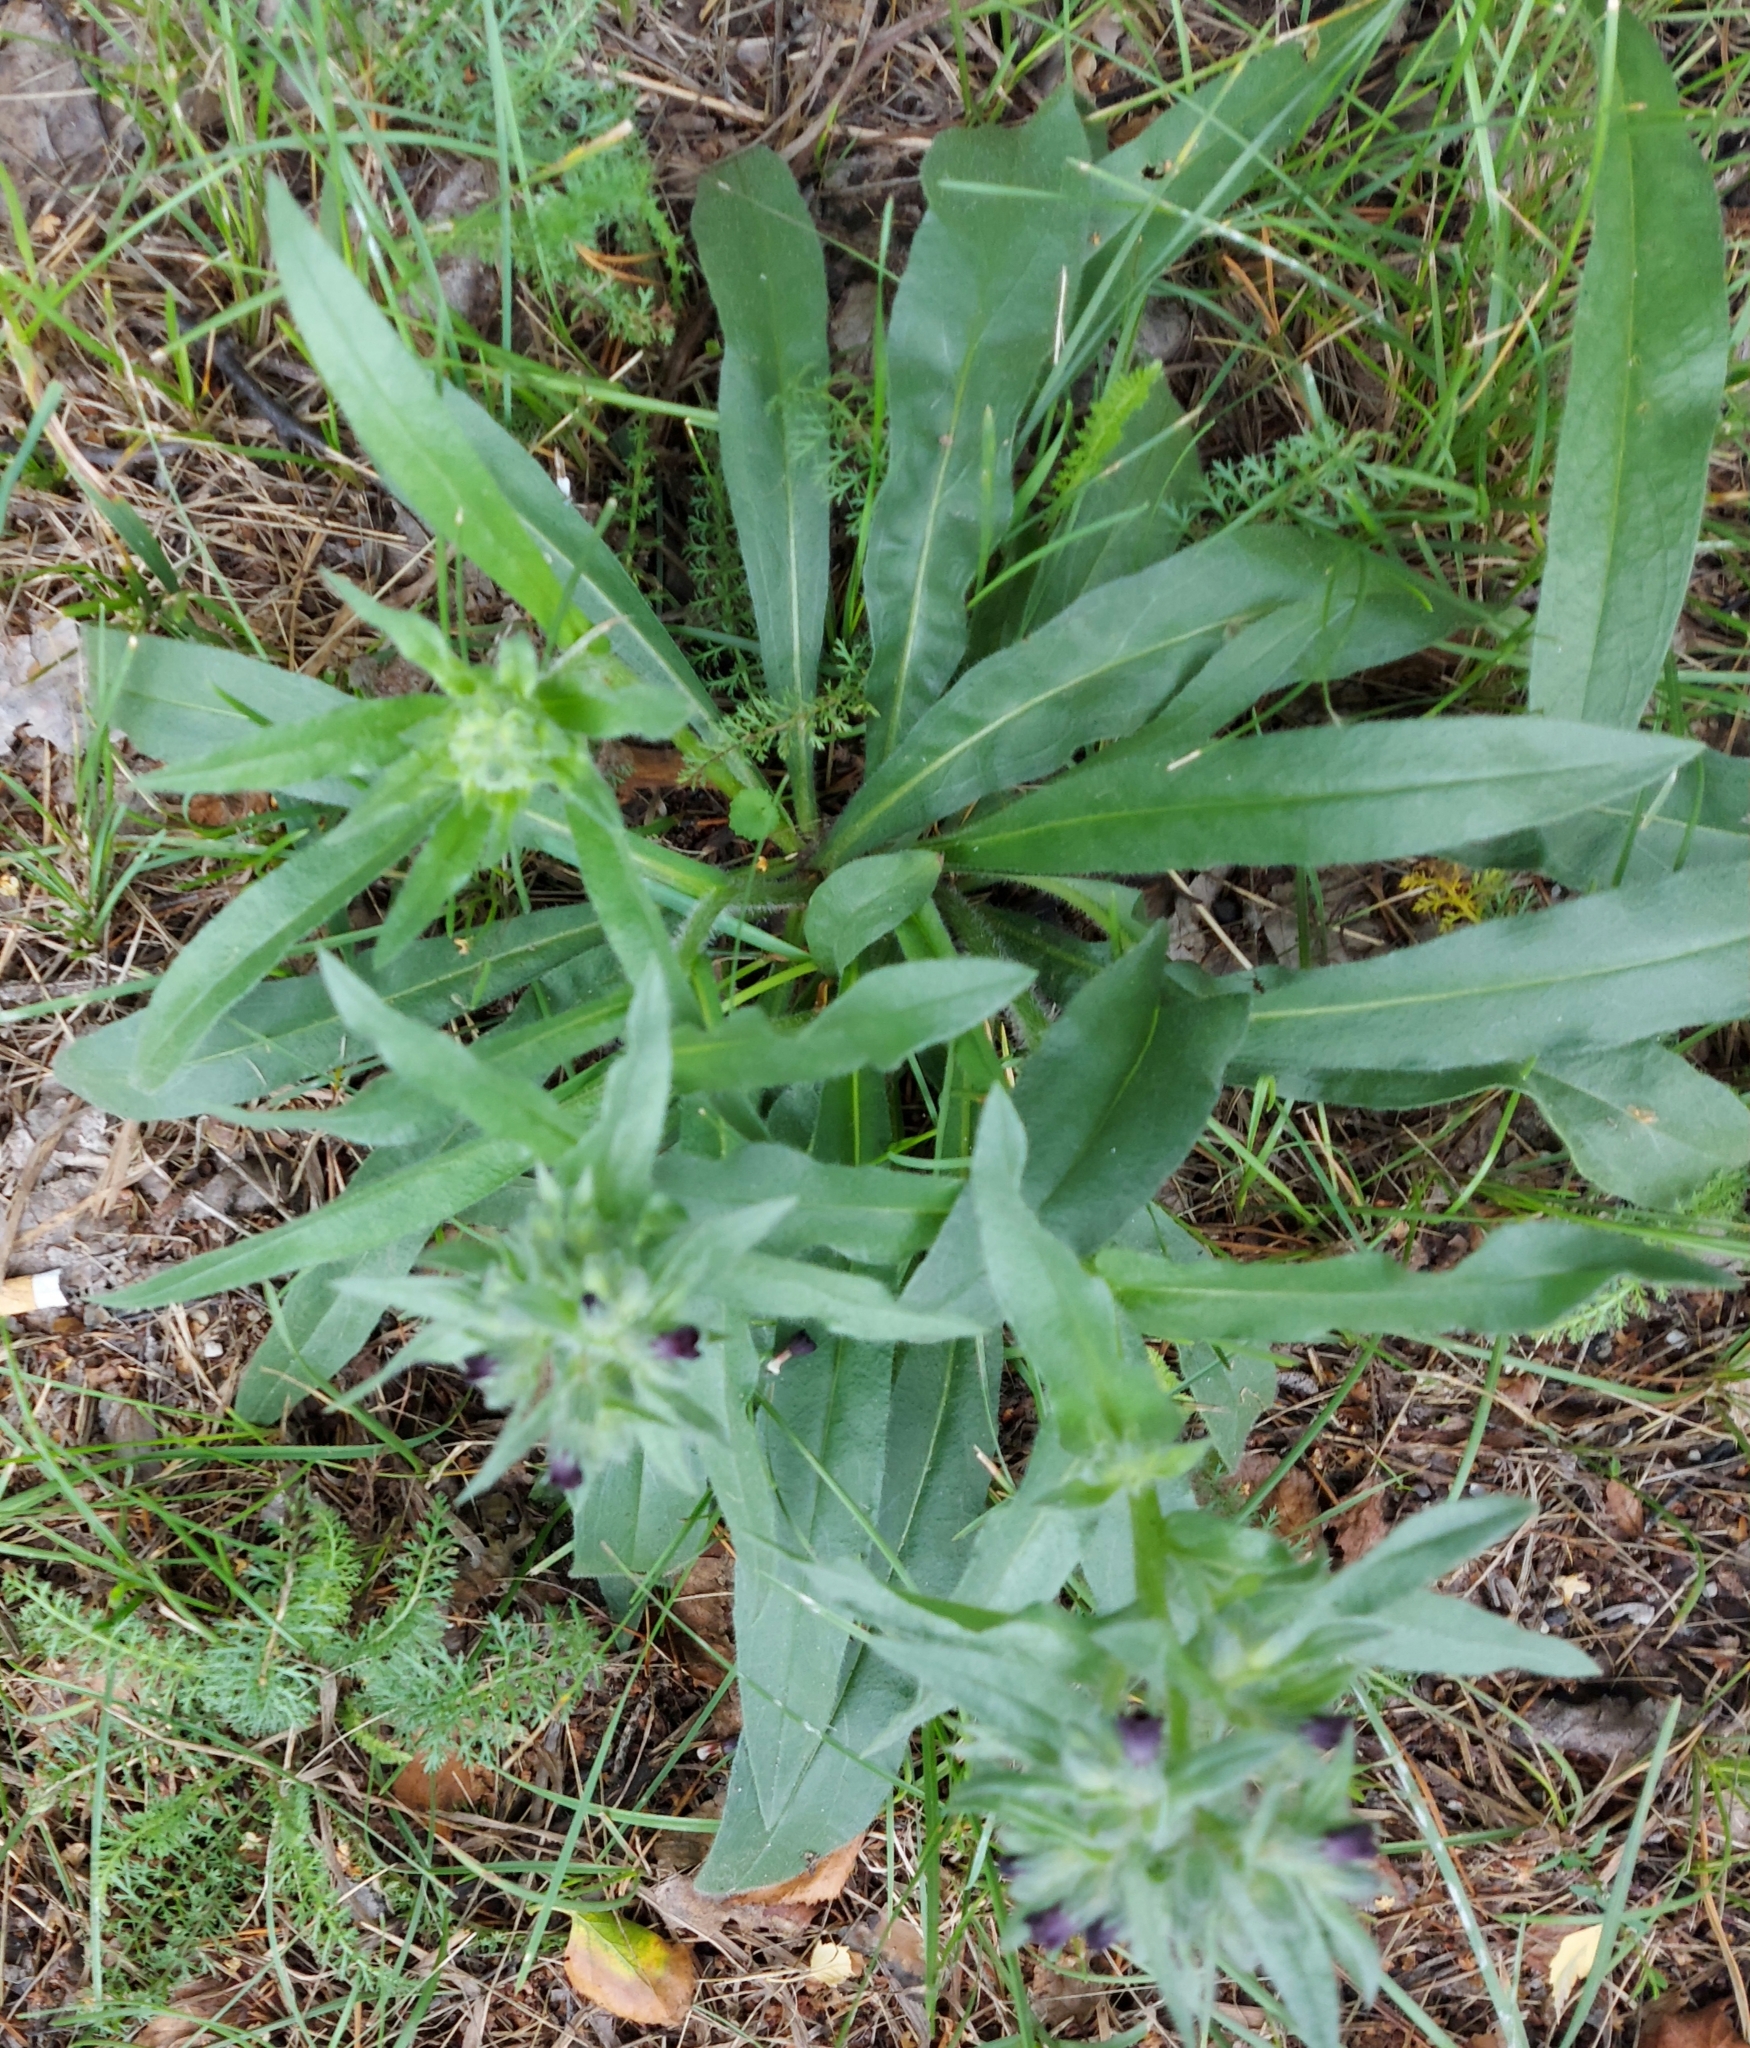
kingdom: Plantae
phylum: Tracheophyta
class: Magnoliopsida
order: Boraginales
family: Boraginaceae
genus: Nonea
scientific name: Nonea pulla
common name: Brown nonea
